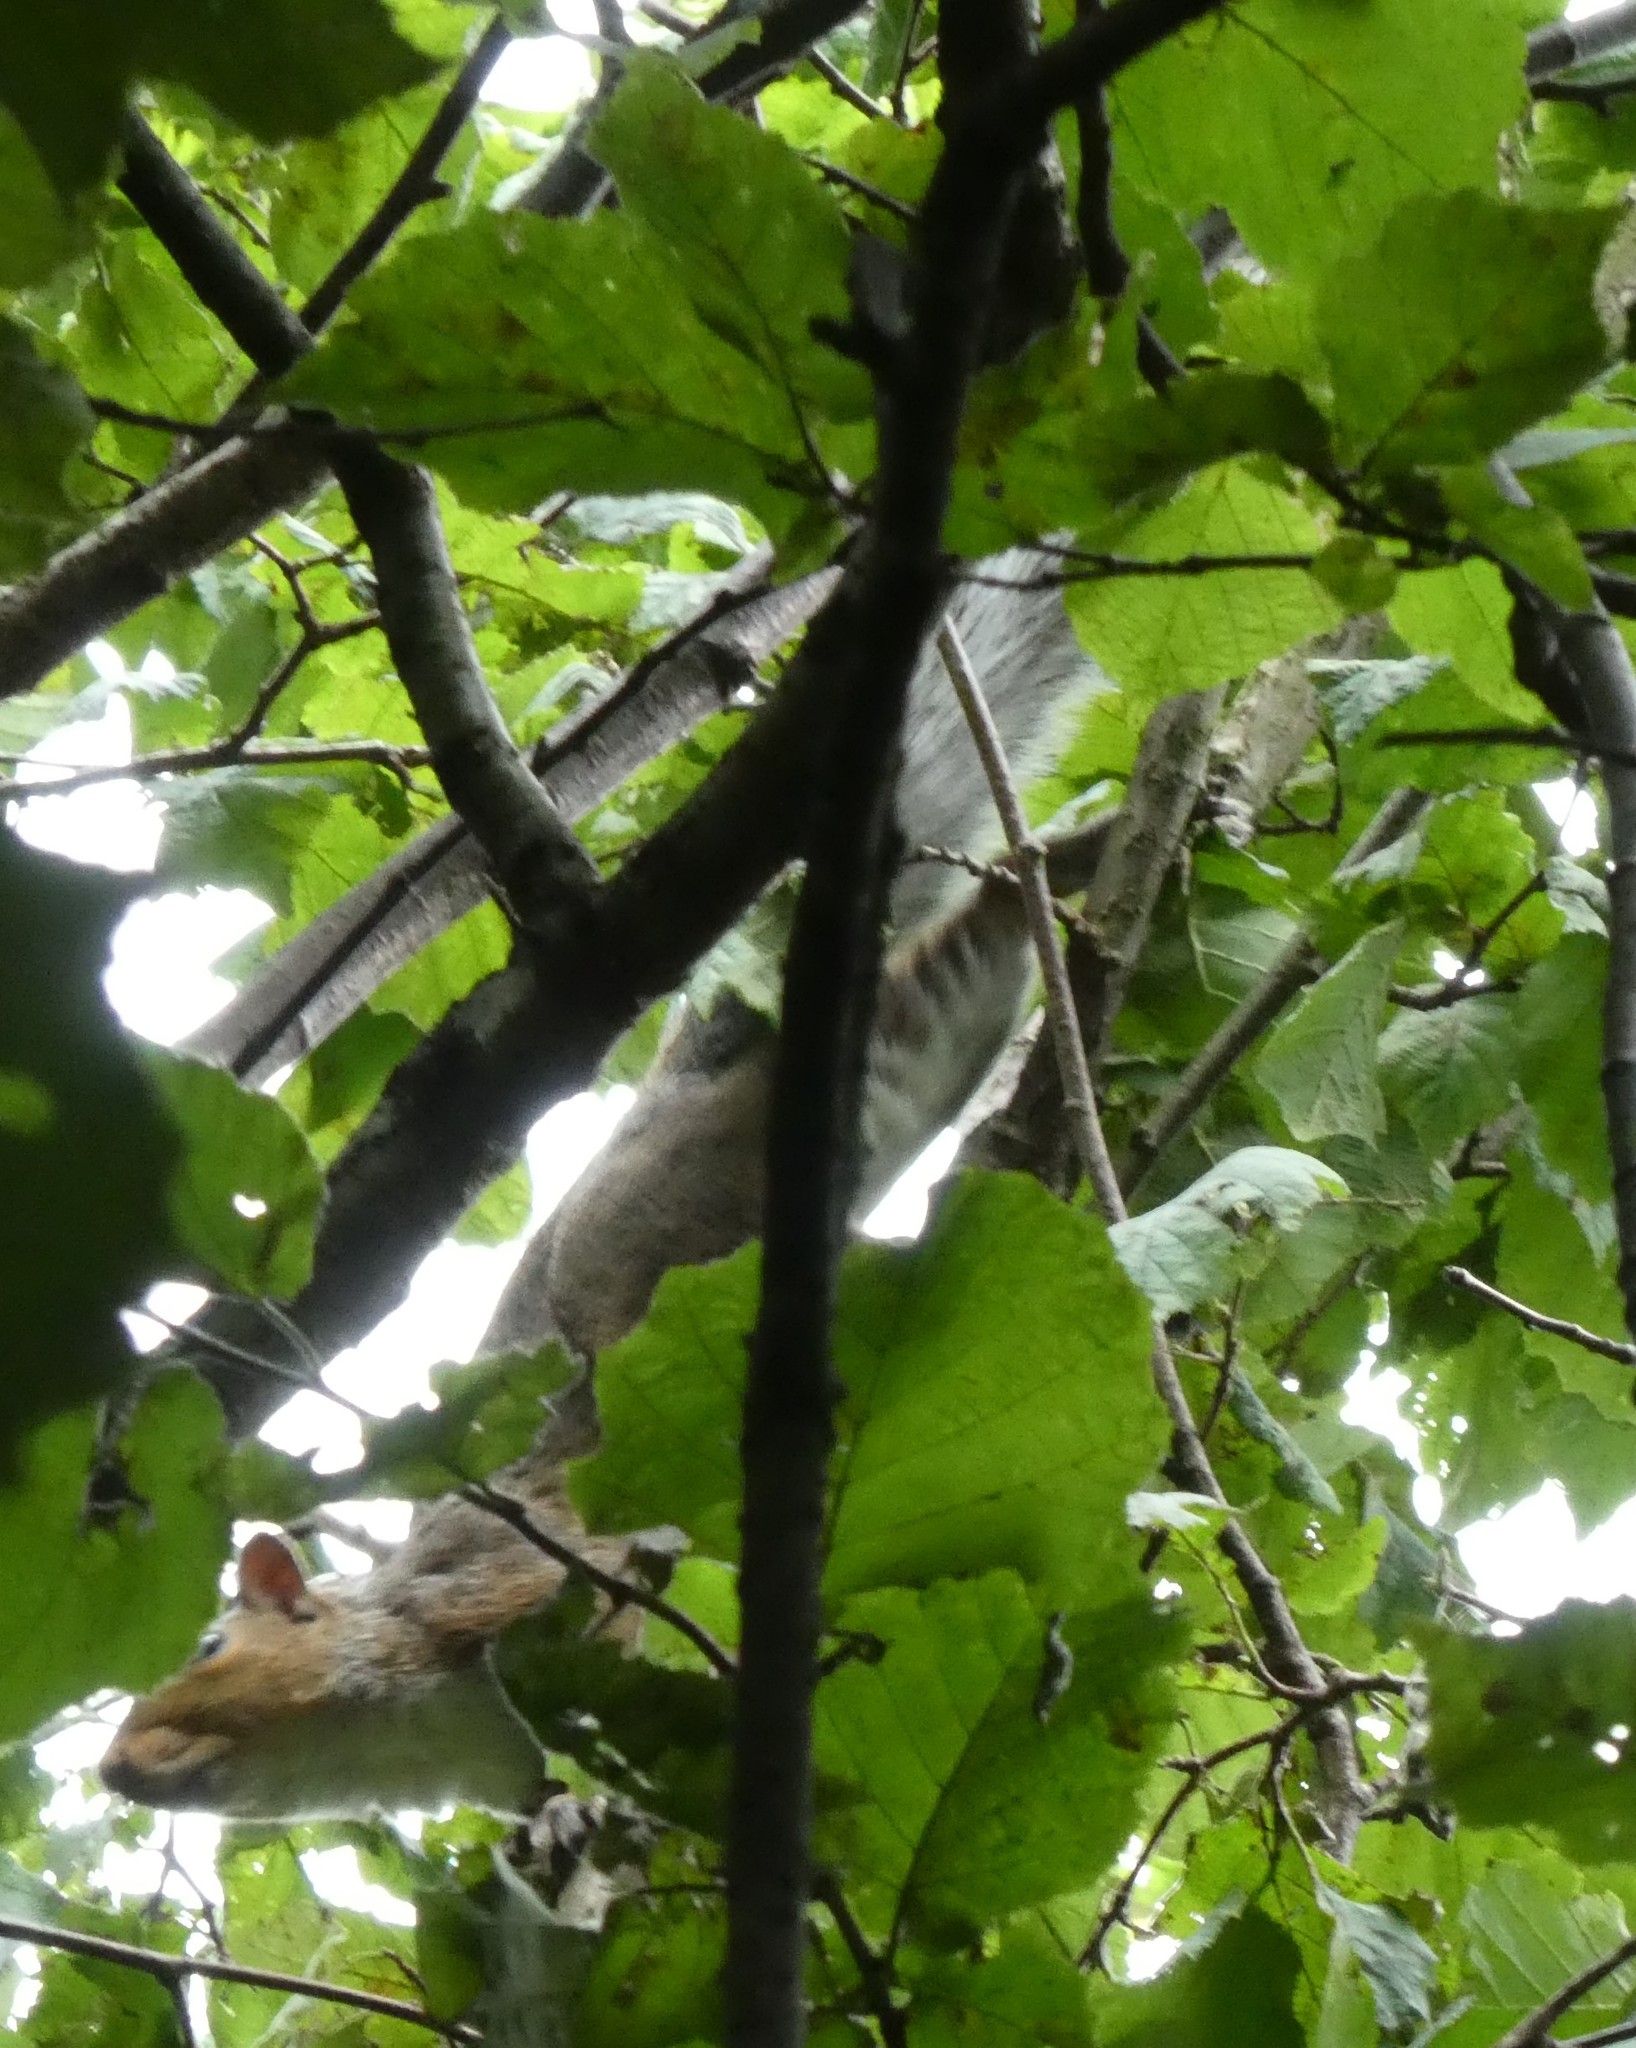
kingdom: Animalia
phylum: Chordata
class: Mammalia
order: Rodentia
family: Sciuridae
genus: Sciurus
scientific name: Sciurus carolinensis
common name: Eastern gray squirrel
